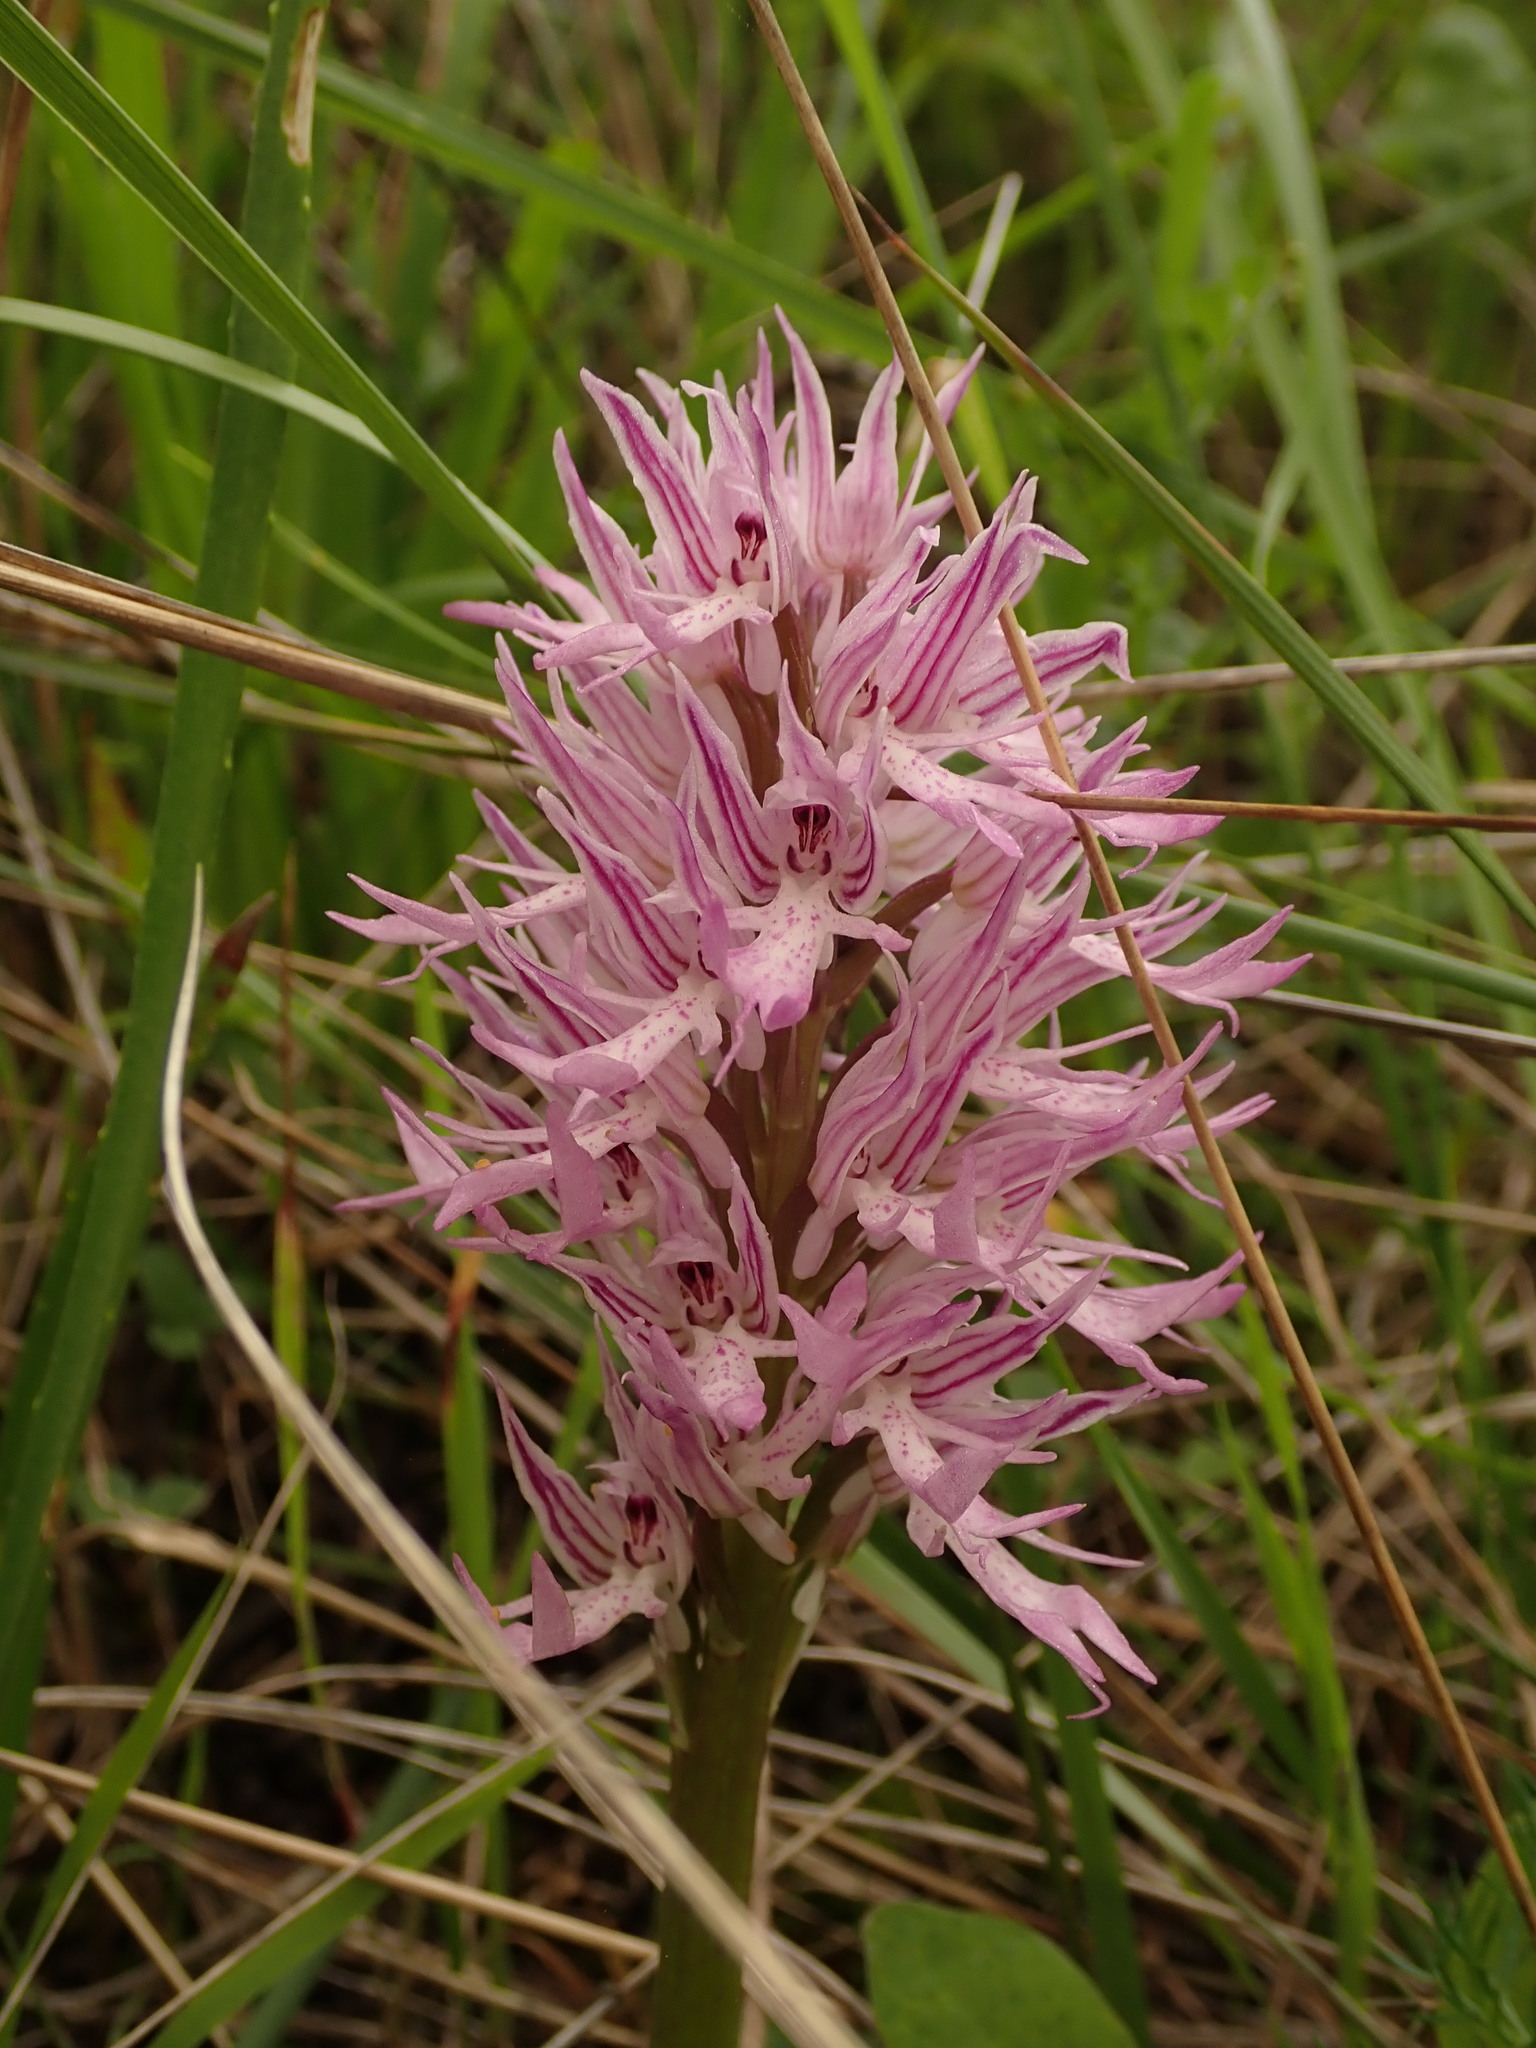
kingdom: Plantae
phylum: Tracheophyta
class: Liliopsida
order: Asparagales
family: Orchidaceae
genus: Orchis
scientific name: Orchis italica
